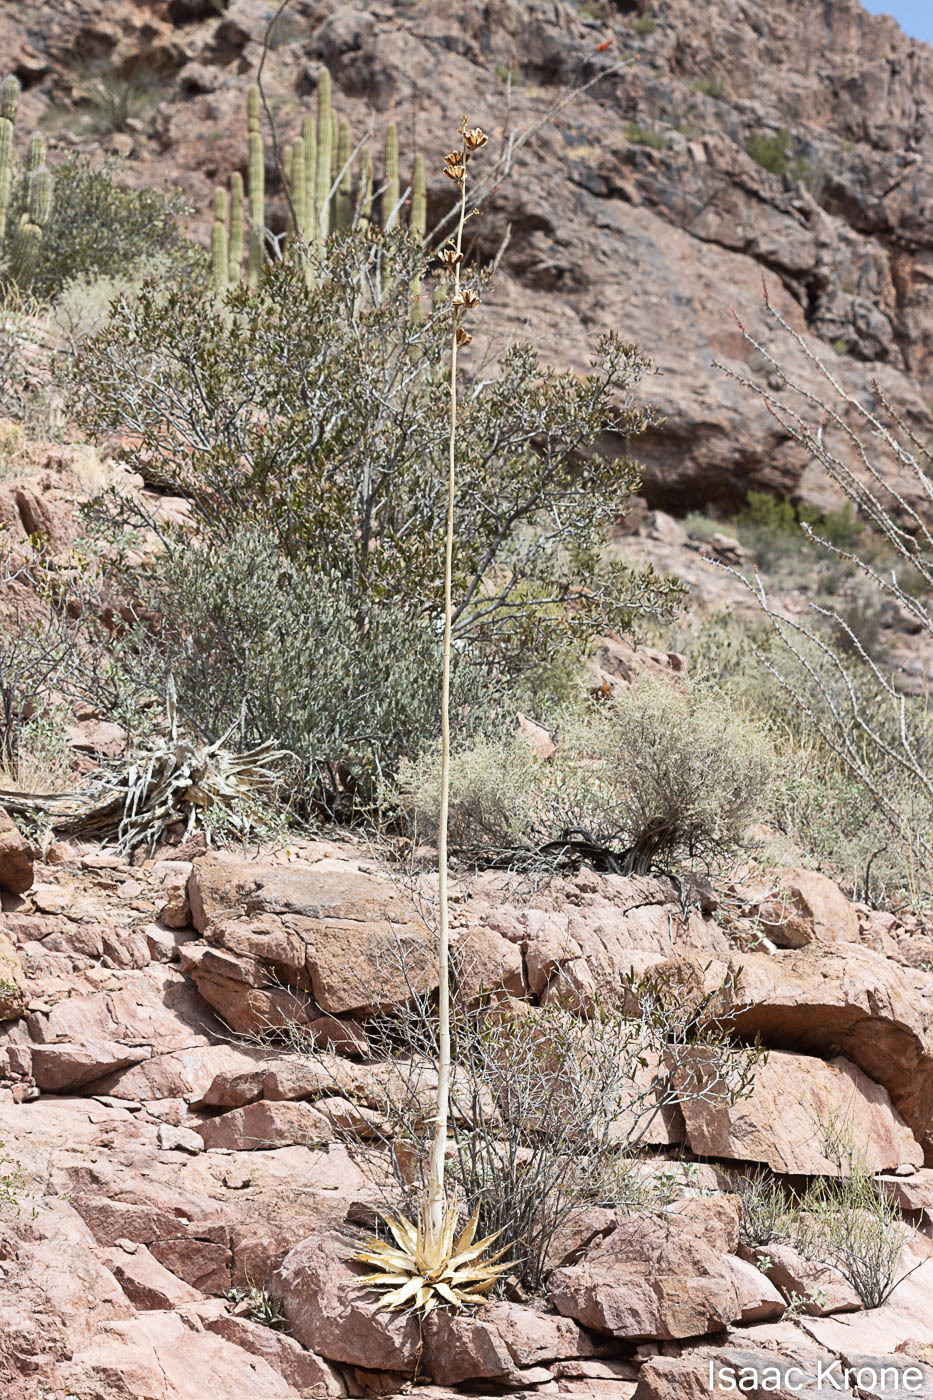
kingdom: Plantae
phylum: Tracheophyta
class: Liliopsida
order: Asparagales
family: Asparagaceae
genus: Agave
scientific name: Agave simplex
